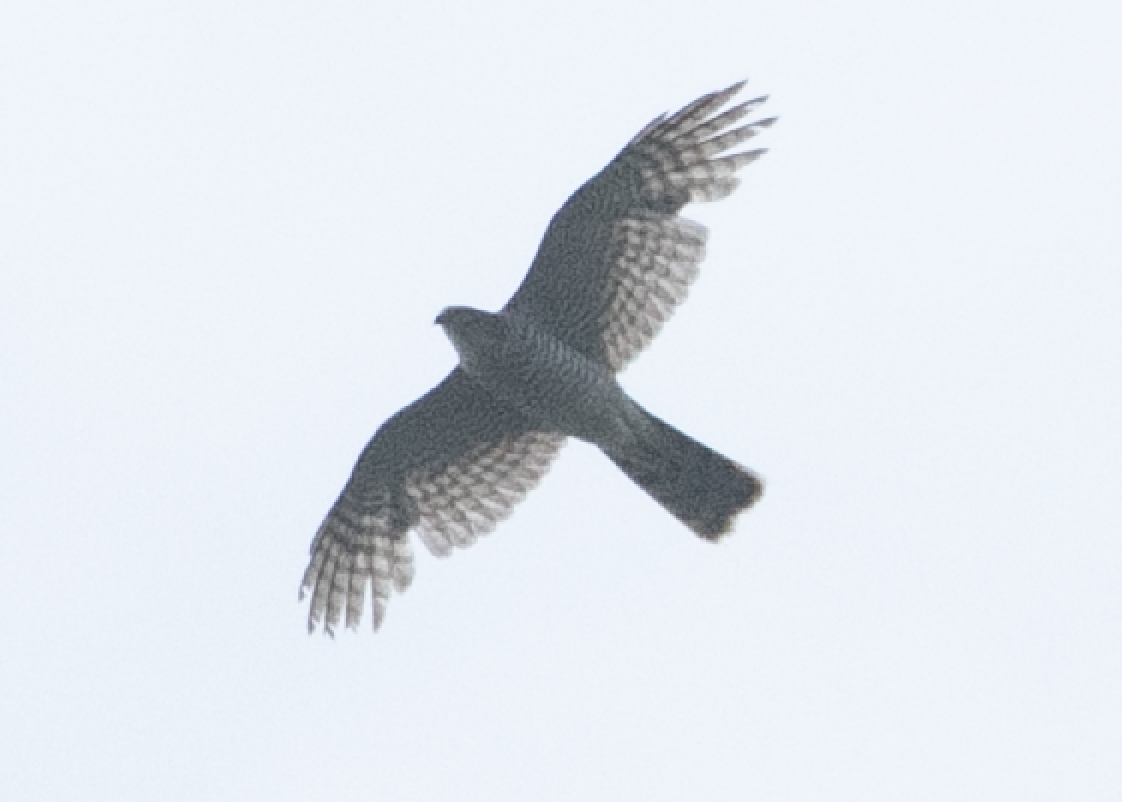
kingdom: Animalia
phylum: Chordata
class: Aves
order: Accipitriformes
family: Accipitridae
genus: Accipiter
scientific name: Accipiter nisus
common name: Eurasian sparrowhawk
